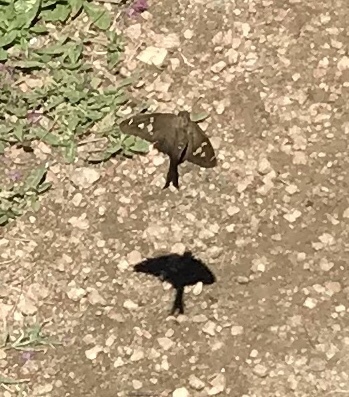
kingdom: Animalia
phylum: Arthropoda
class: Insecta
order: Lepidoptera
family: Hesperiidae
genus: Chioides
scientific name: Chioides catillus
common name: Silverbanded skipper
